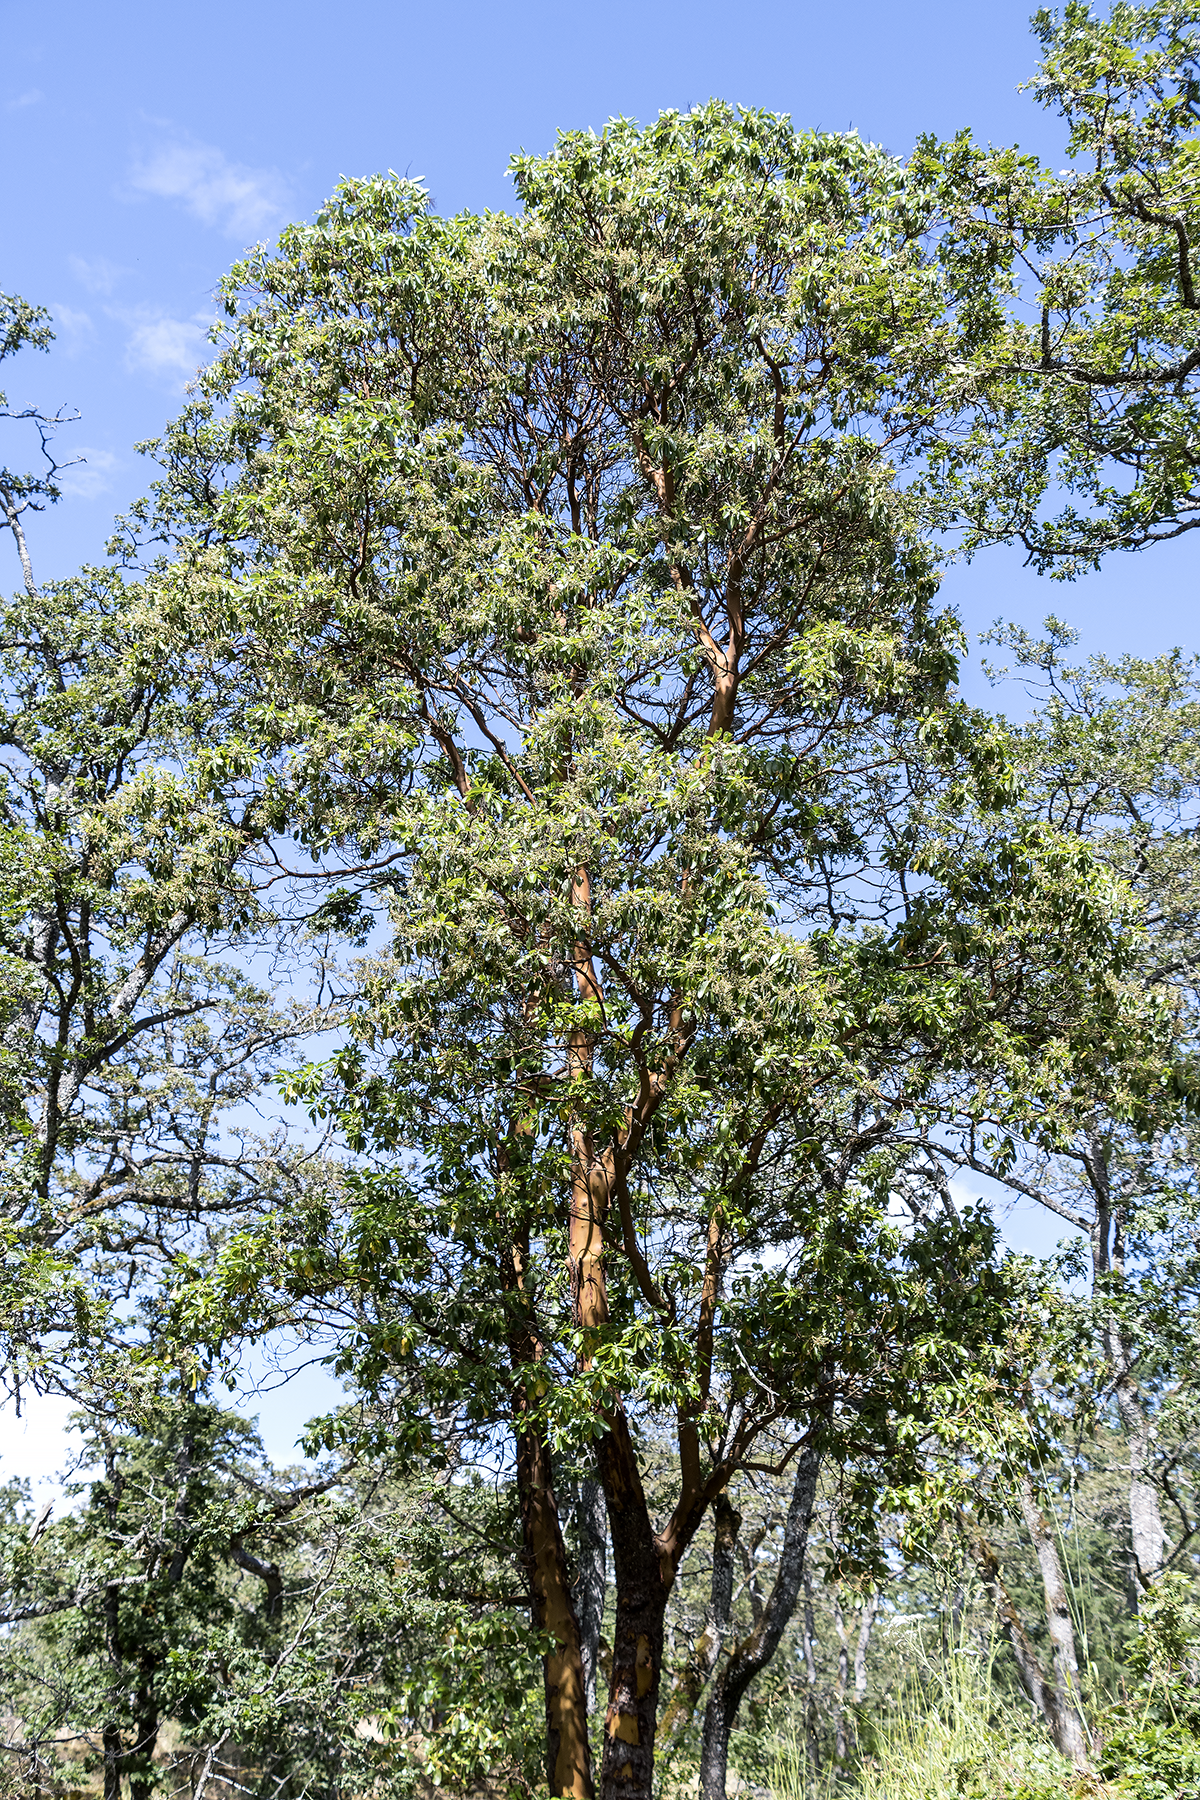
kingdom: Plantae
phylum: Tracheophyta
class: Magnoliopsida
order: Ericales
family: Ericaceae
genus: Arbutus
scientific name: Arbutus menziesii
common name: Pacific madrone
